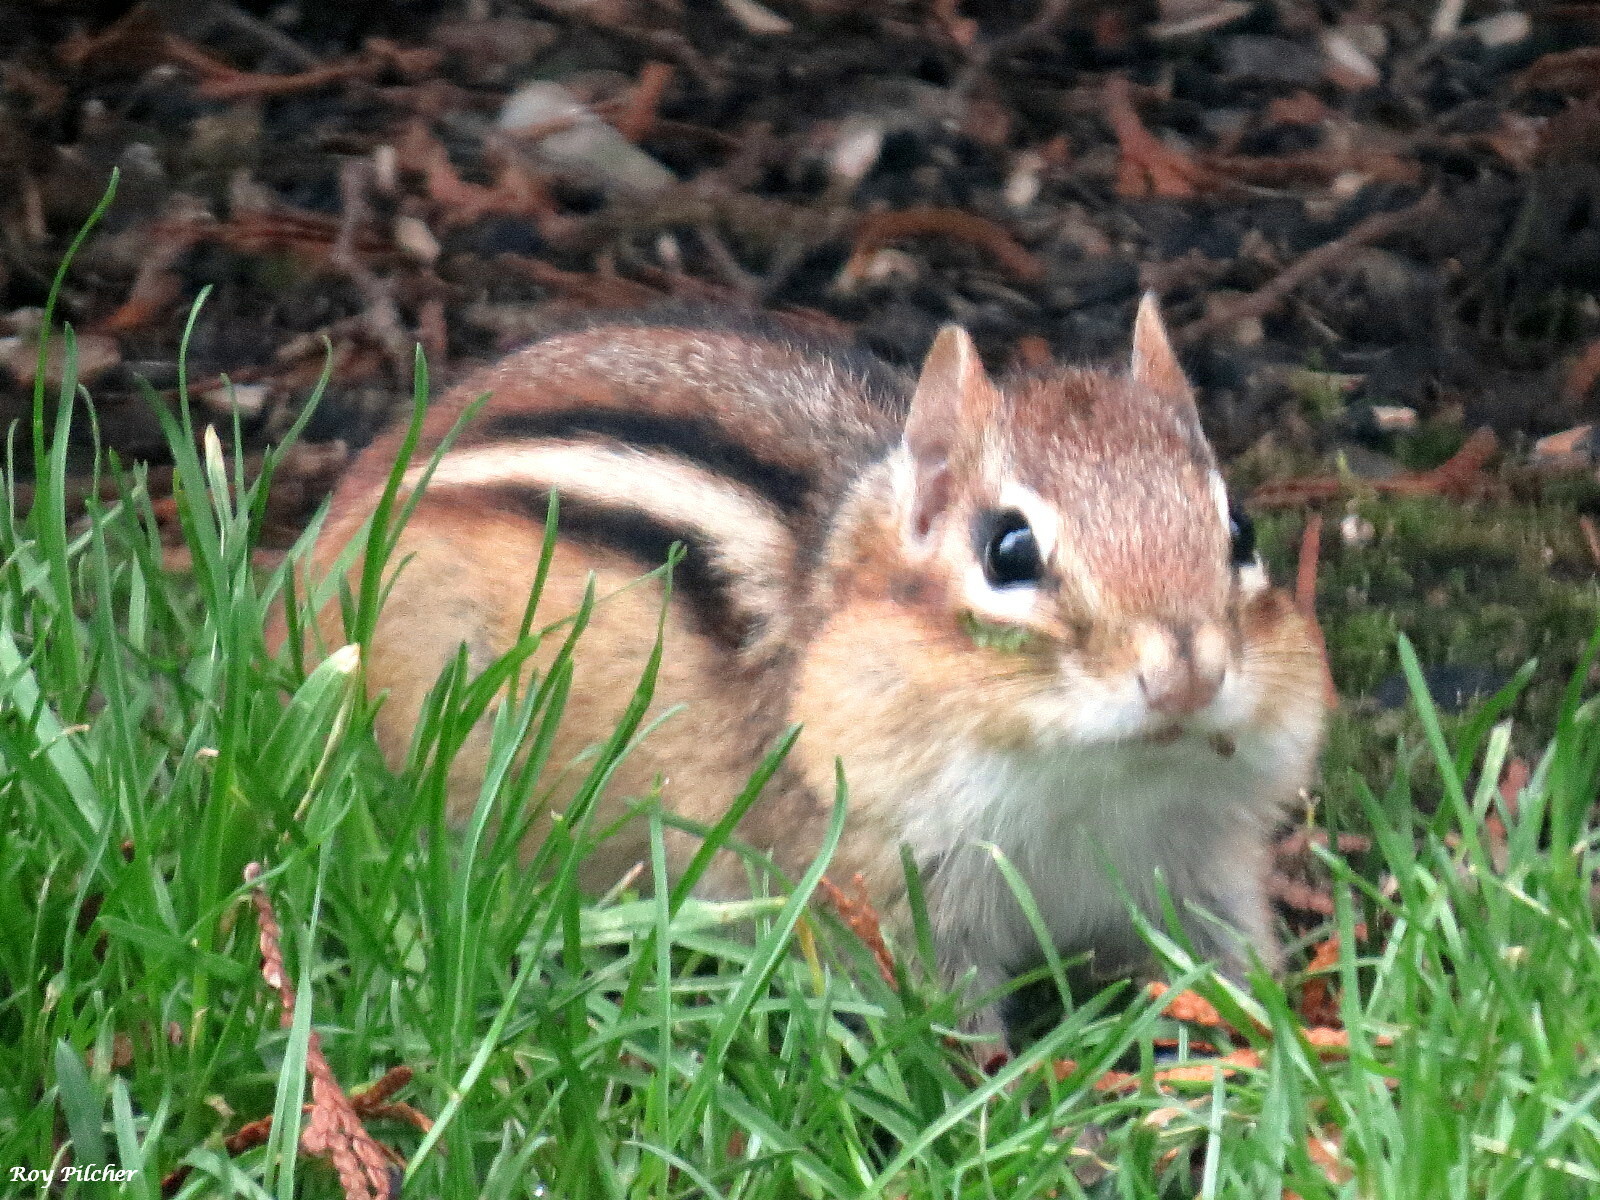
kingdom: Animalia
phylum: Chordata
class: Mammalia
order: Rodentia
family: Sciuridae
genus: Tamias
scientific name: Tamias striatus
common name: Eastern chipmunk
